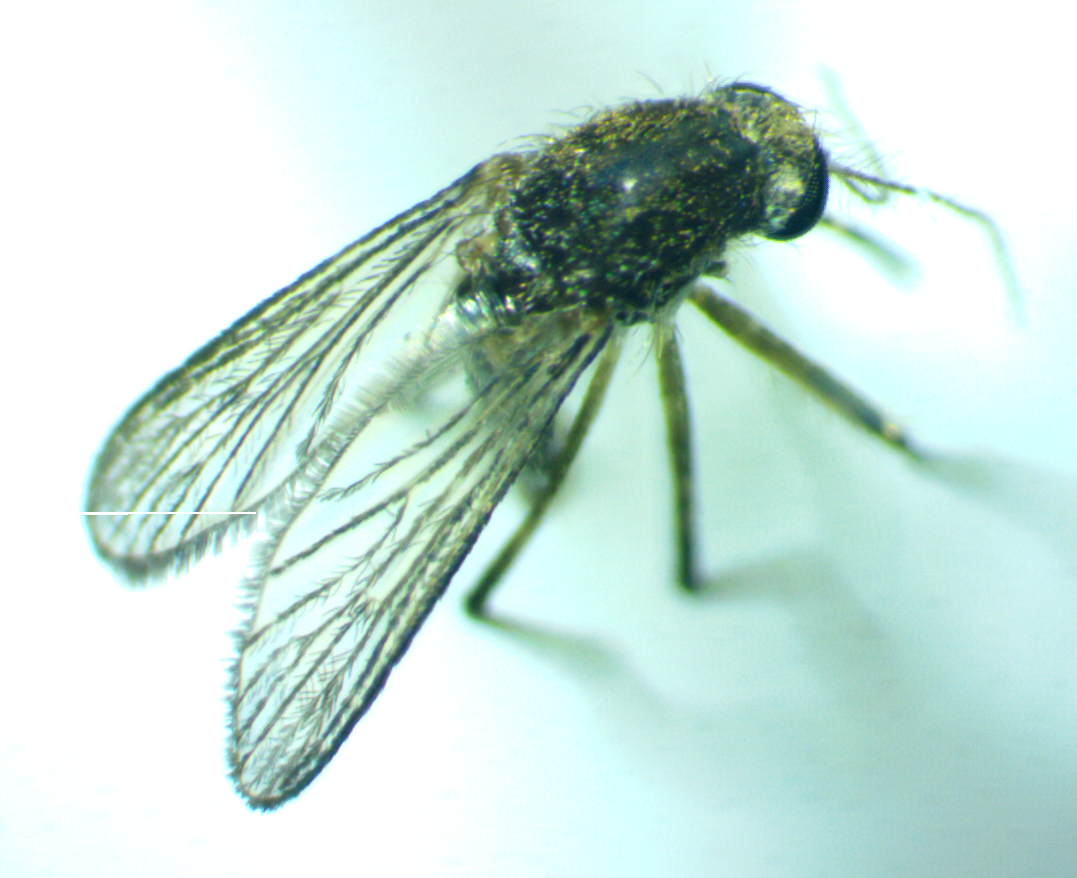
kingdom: Animalia
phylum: Arthropoda
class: Insecta
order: Diptera
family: Culicidae
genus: Aedes
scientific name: Aedes taeniorhynchus
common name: Black salt marsh mosquito
